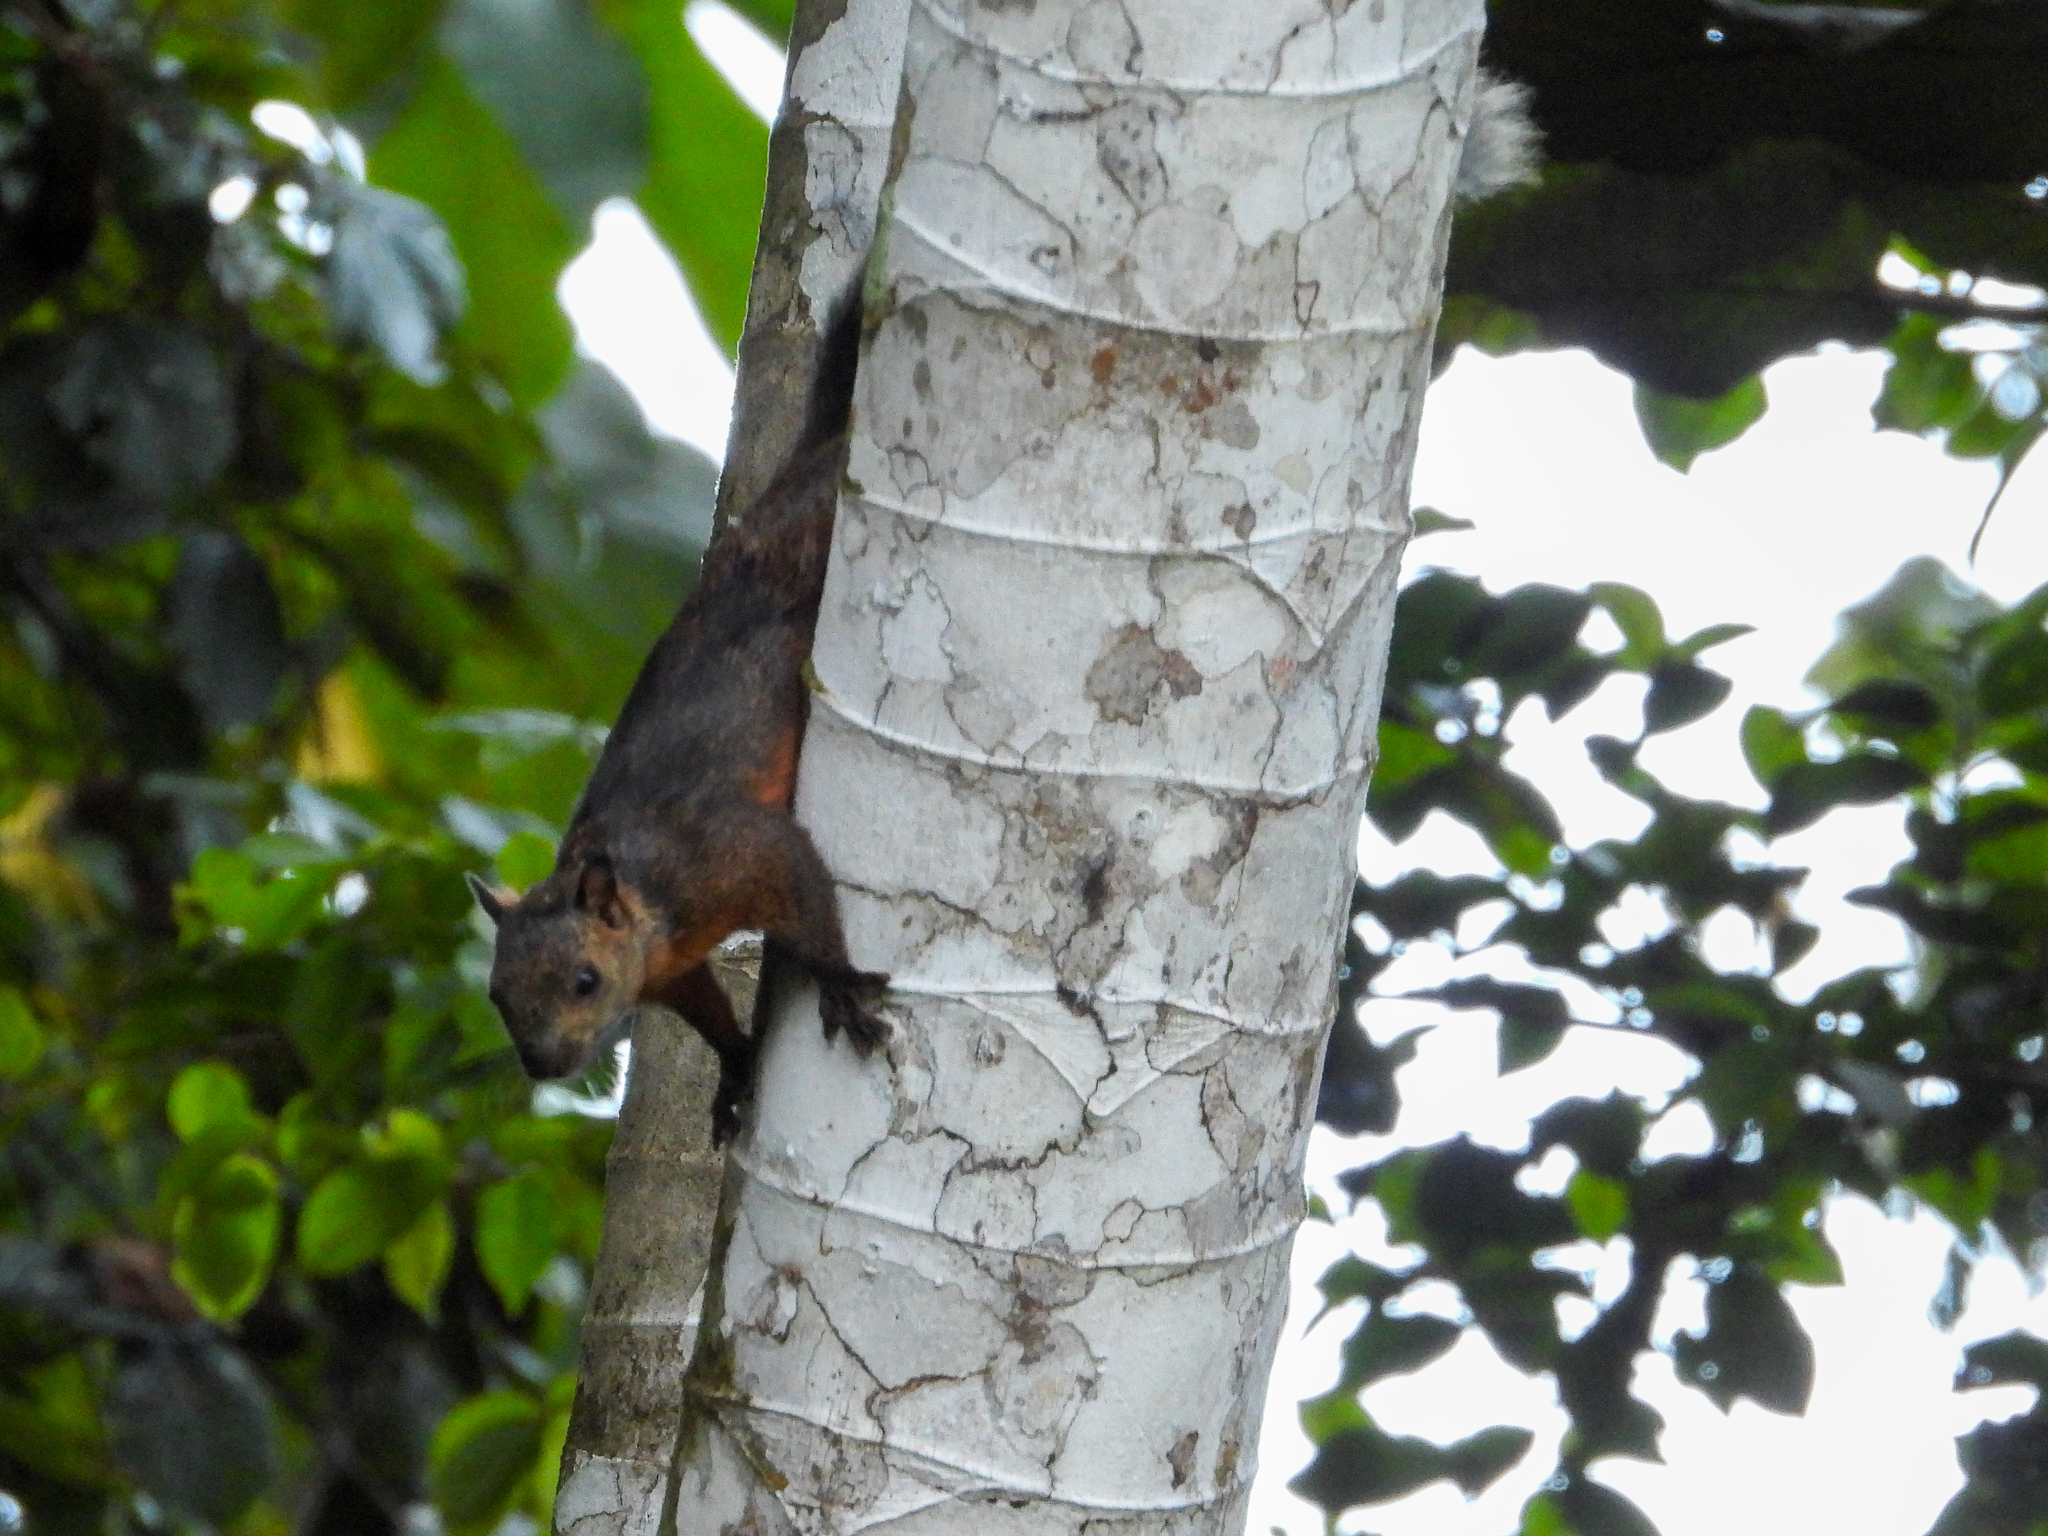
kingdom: Animalia
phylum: Chordata
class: Mammalia
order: Rodentia
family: Sciuridae
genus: Sciurus
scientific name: Sciurus variegatoides
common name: Variegated squirrel
